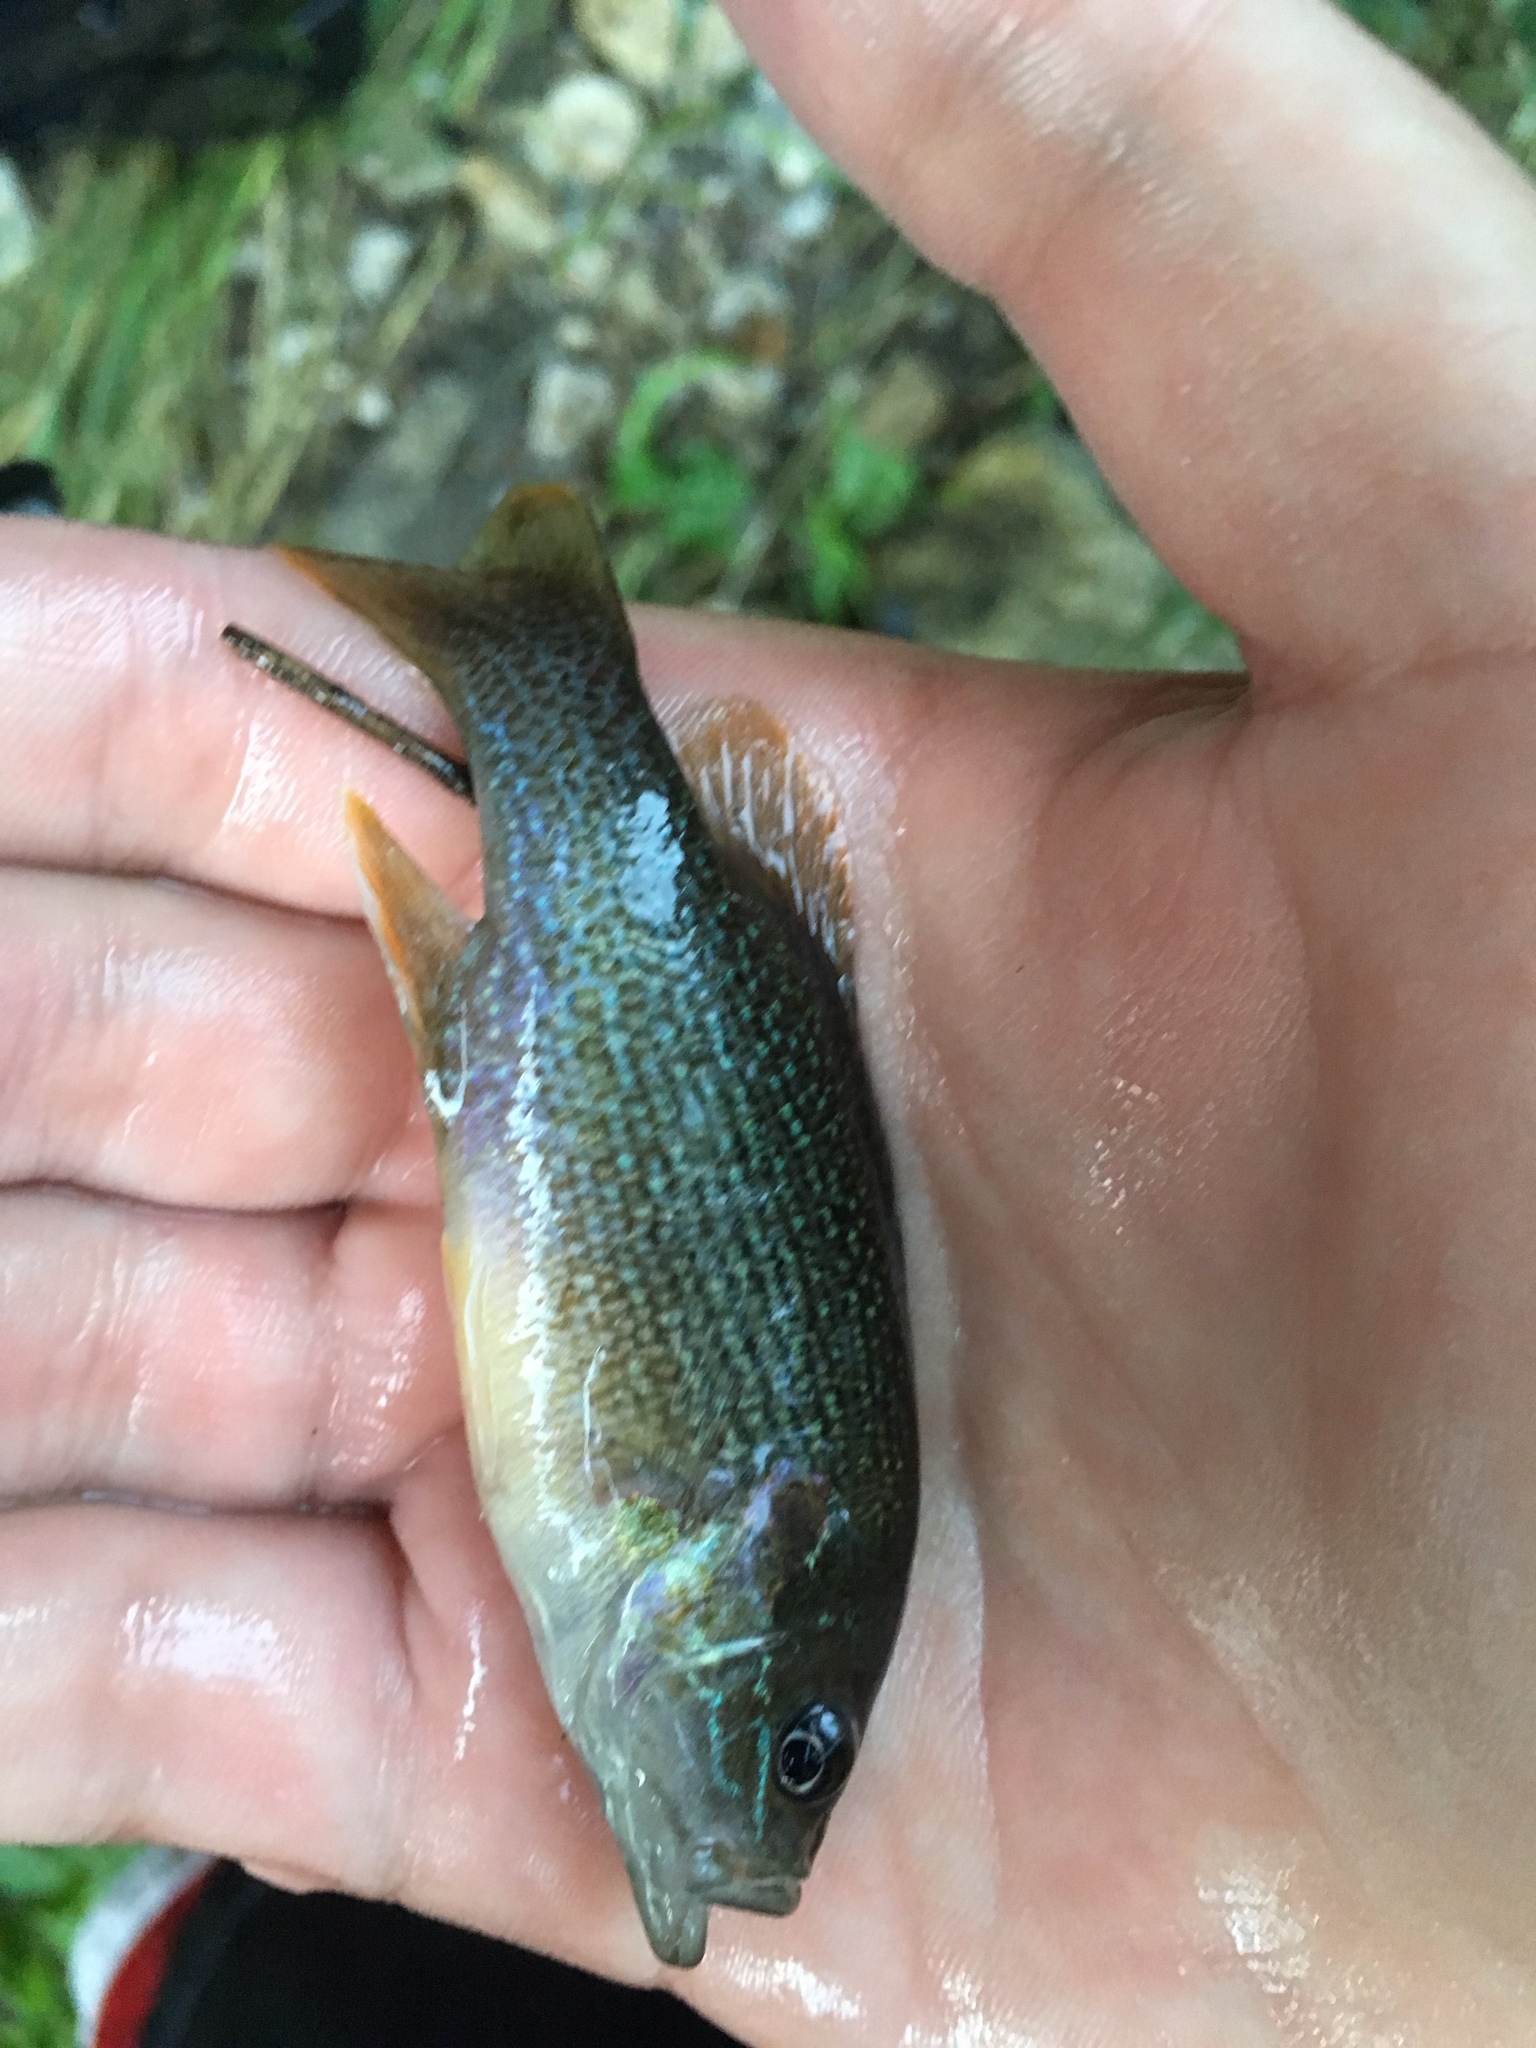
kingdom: Animalia
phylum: Chordata
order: Perciformes
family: Centrarchidae
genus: Lepomis
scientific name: Lepomis cyanellus
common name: Green sunfish
